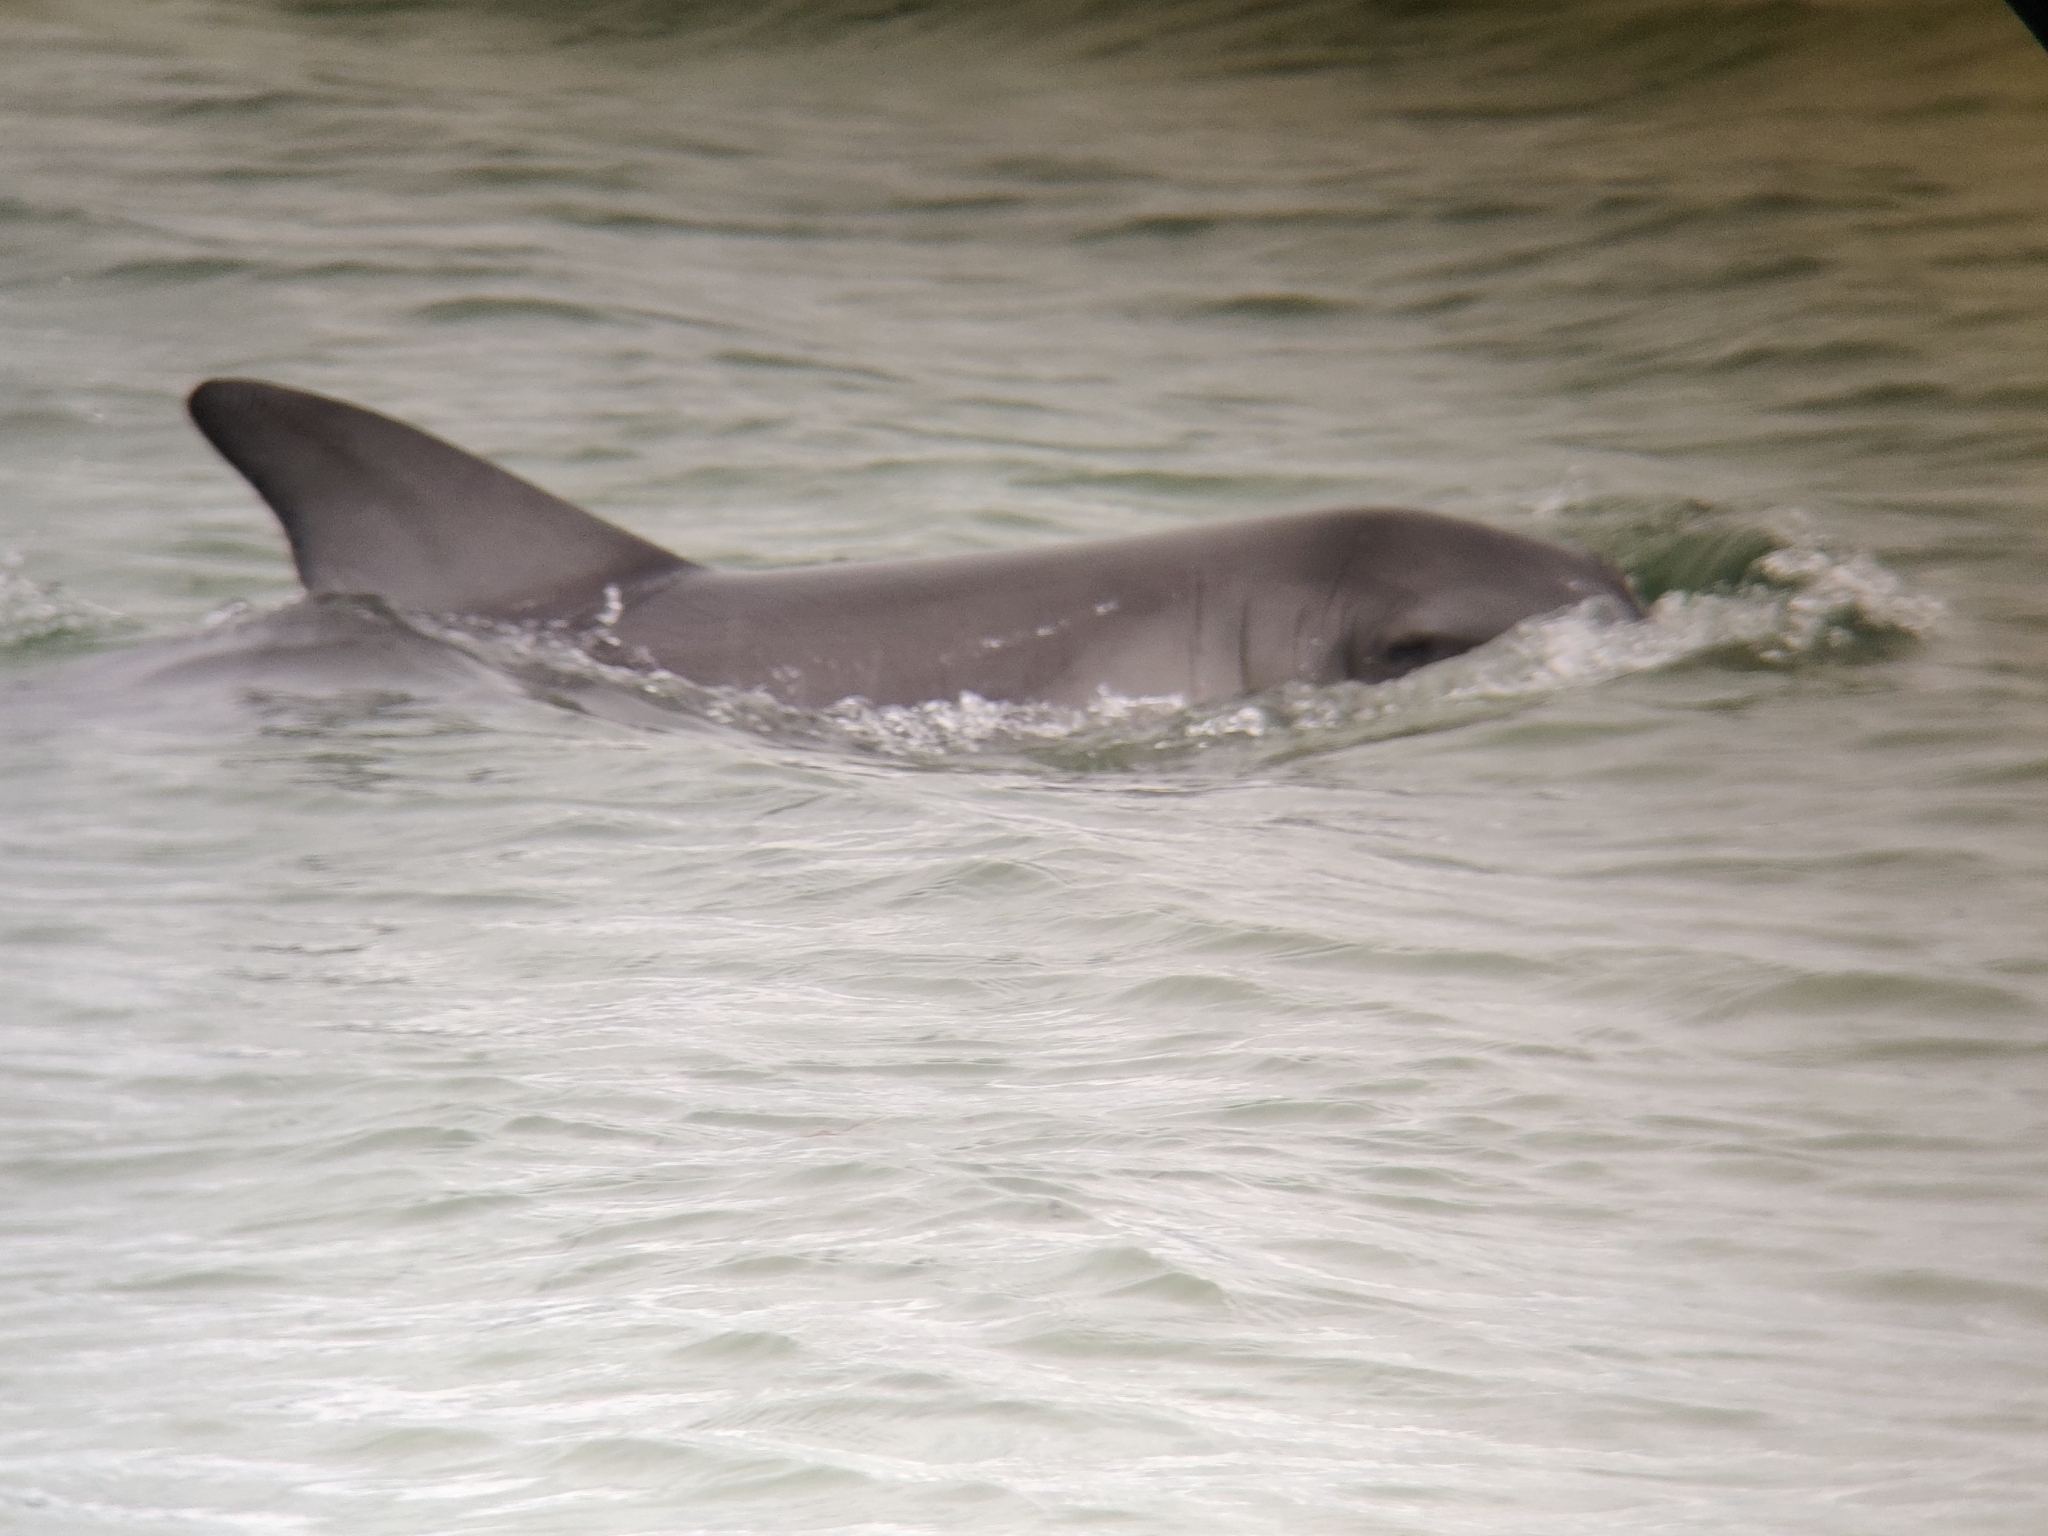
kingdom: Animalia
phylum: Chordata
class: Mammalia
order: Cetacea
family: Delphinidae
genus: Tursiops
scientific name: Tursiops aduncus
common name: Indo-pacific bottlenose dolphin
